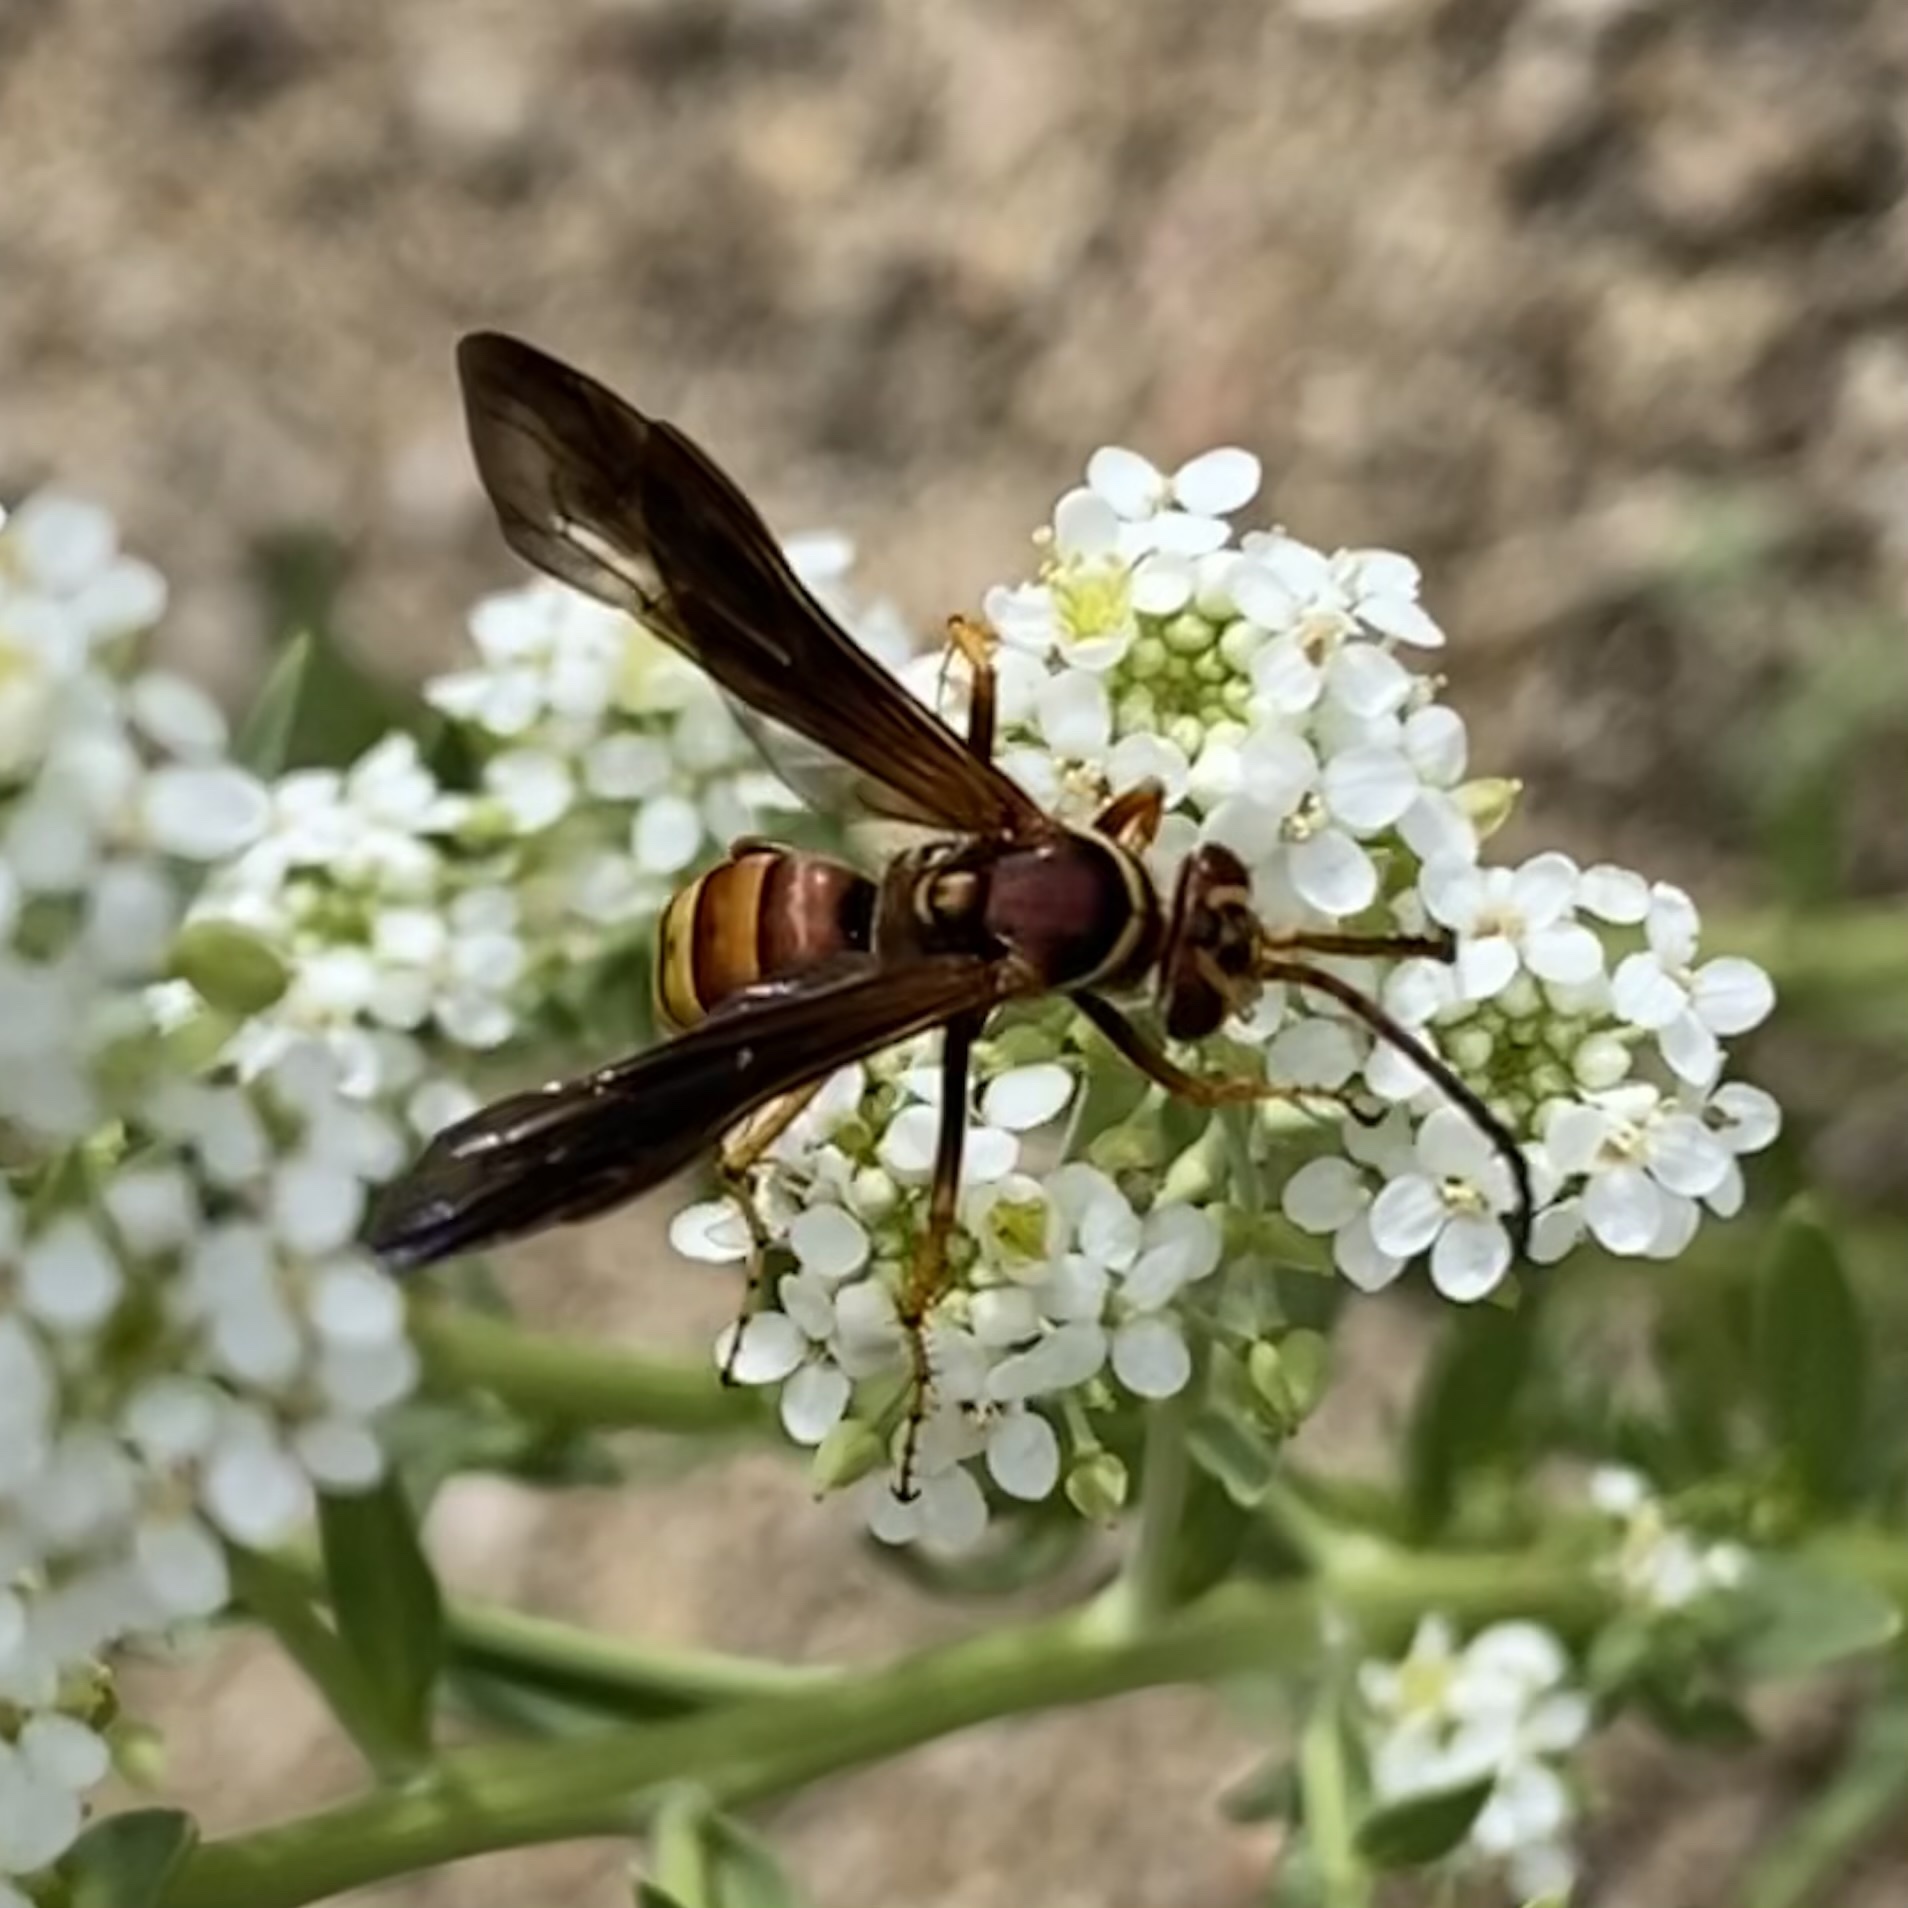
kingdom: Animalia
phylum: Arthropoda
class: Insecta
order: Hymenoptera
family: Pompilidae
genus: Poecilopompilus
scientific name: Poecilopompilus algidus
